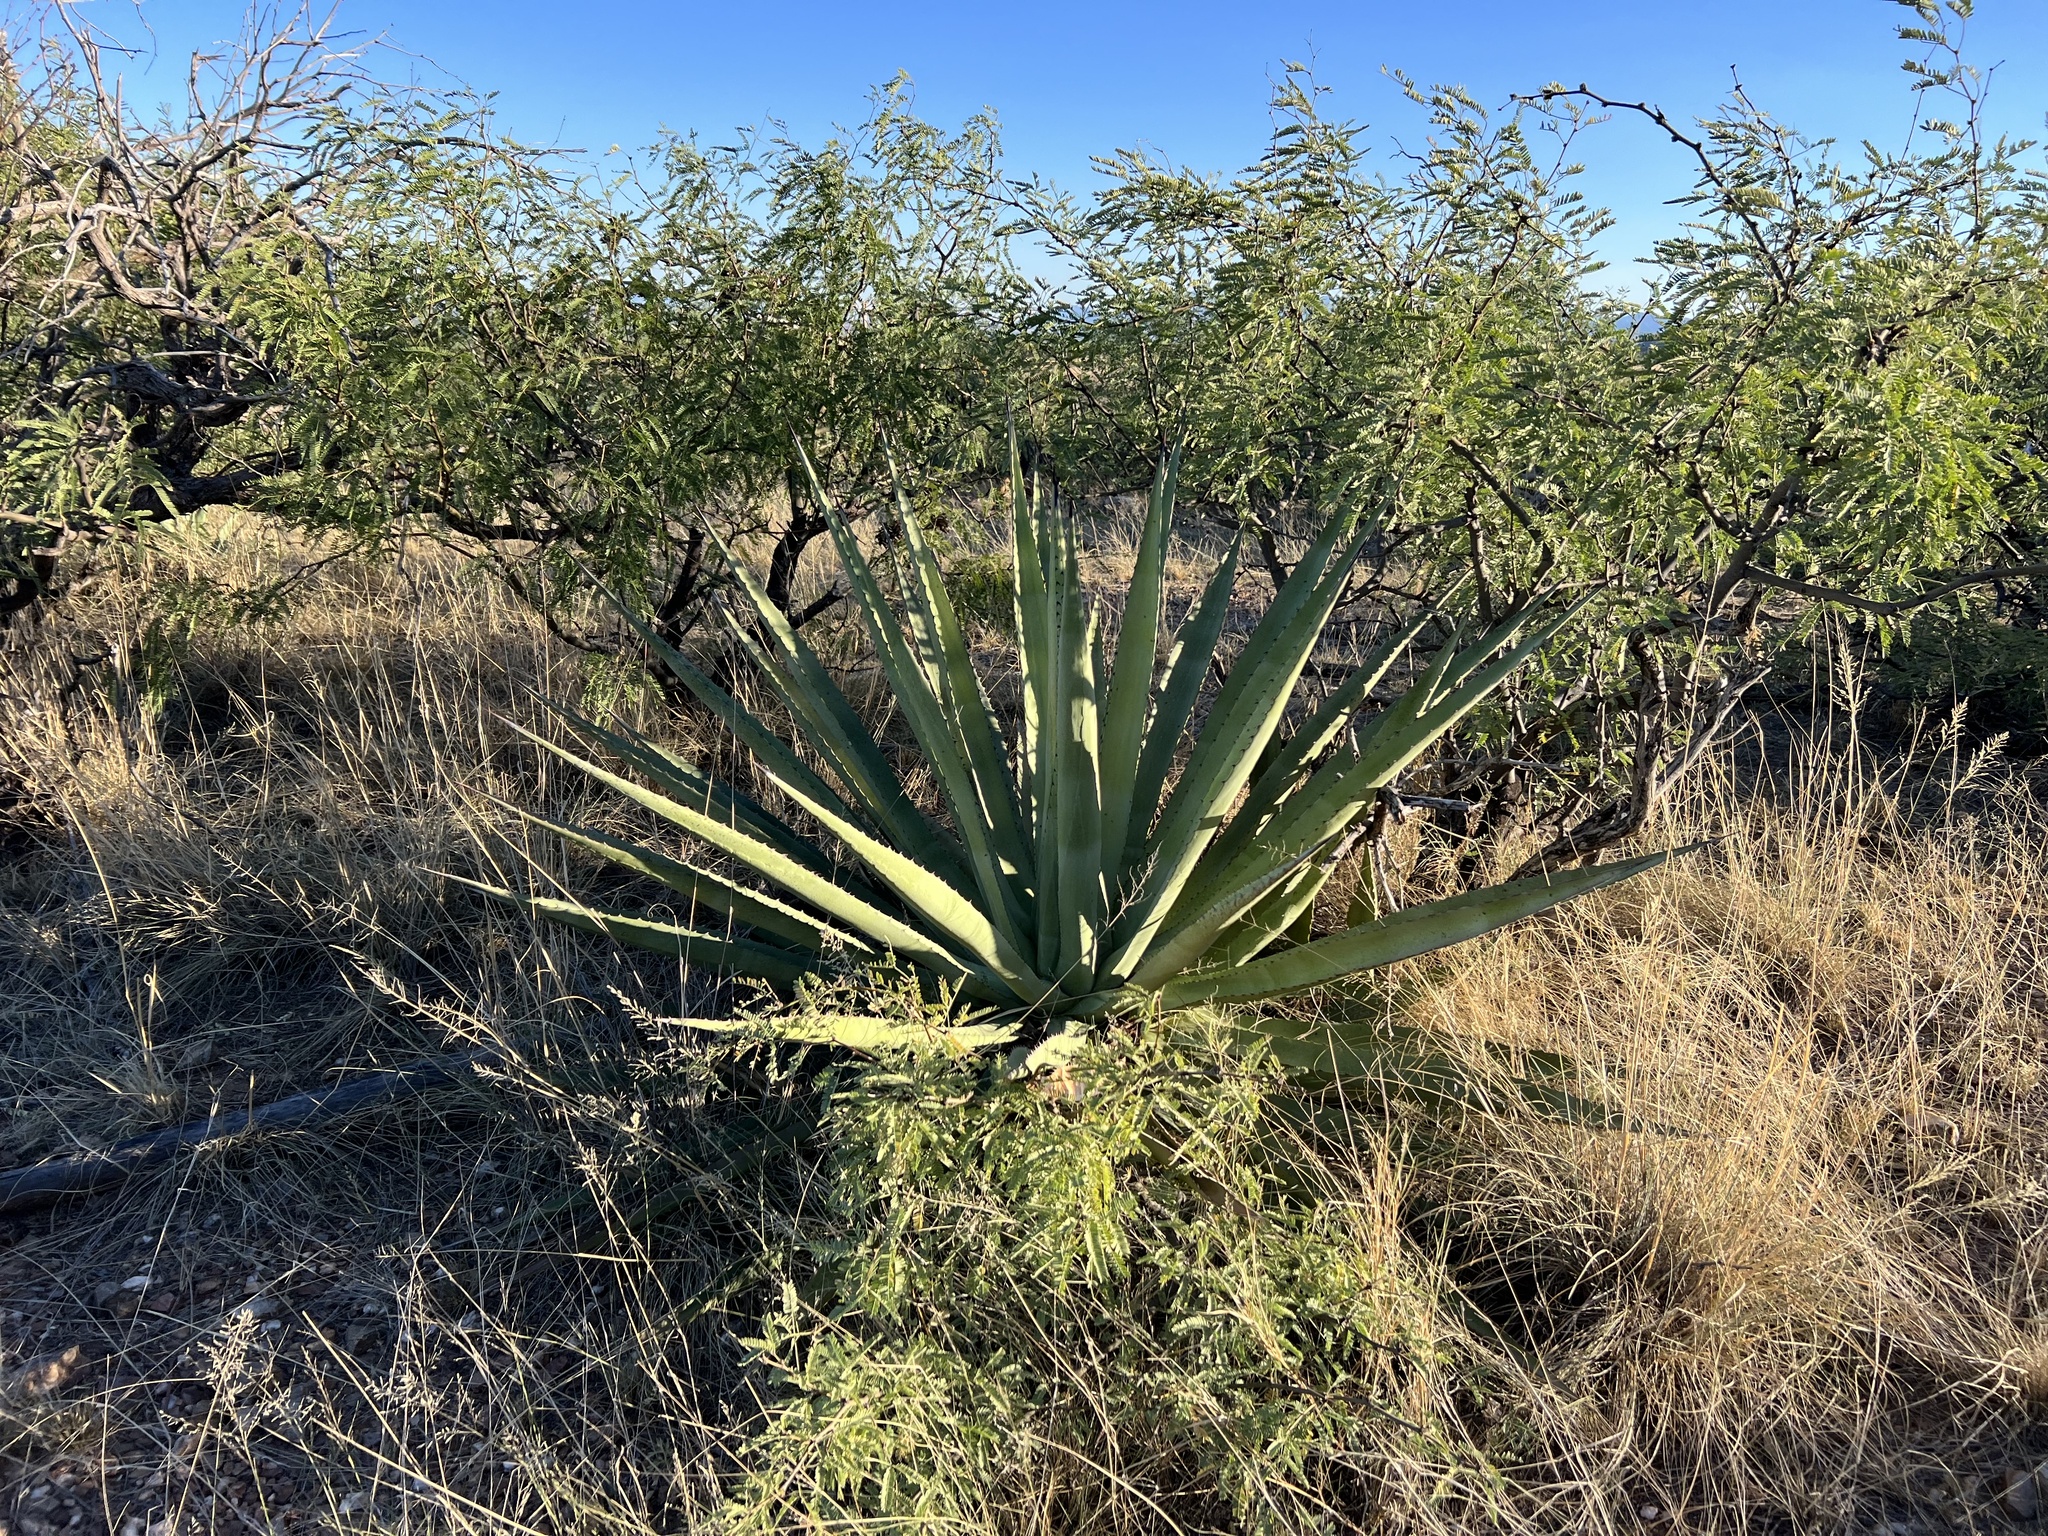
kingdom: Plantae
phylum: Tracheophyta
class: Liliopsida
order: Asparagales
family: Asparagaceae
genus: Agave
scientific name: Agave palmeri
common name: Palmer agave
